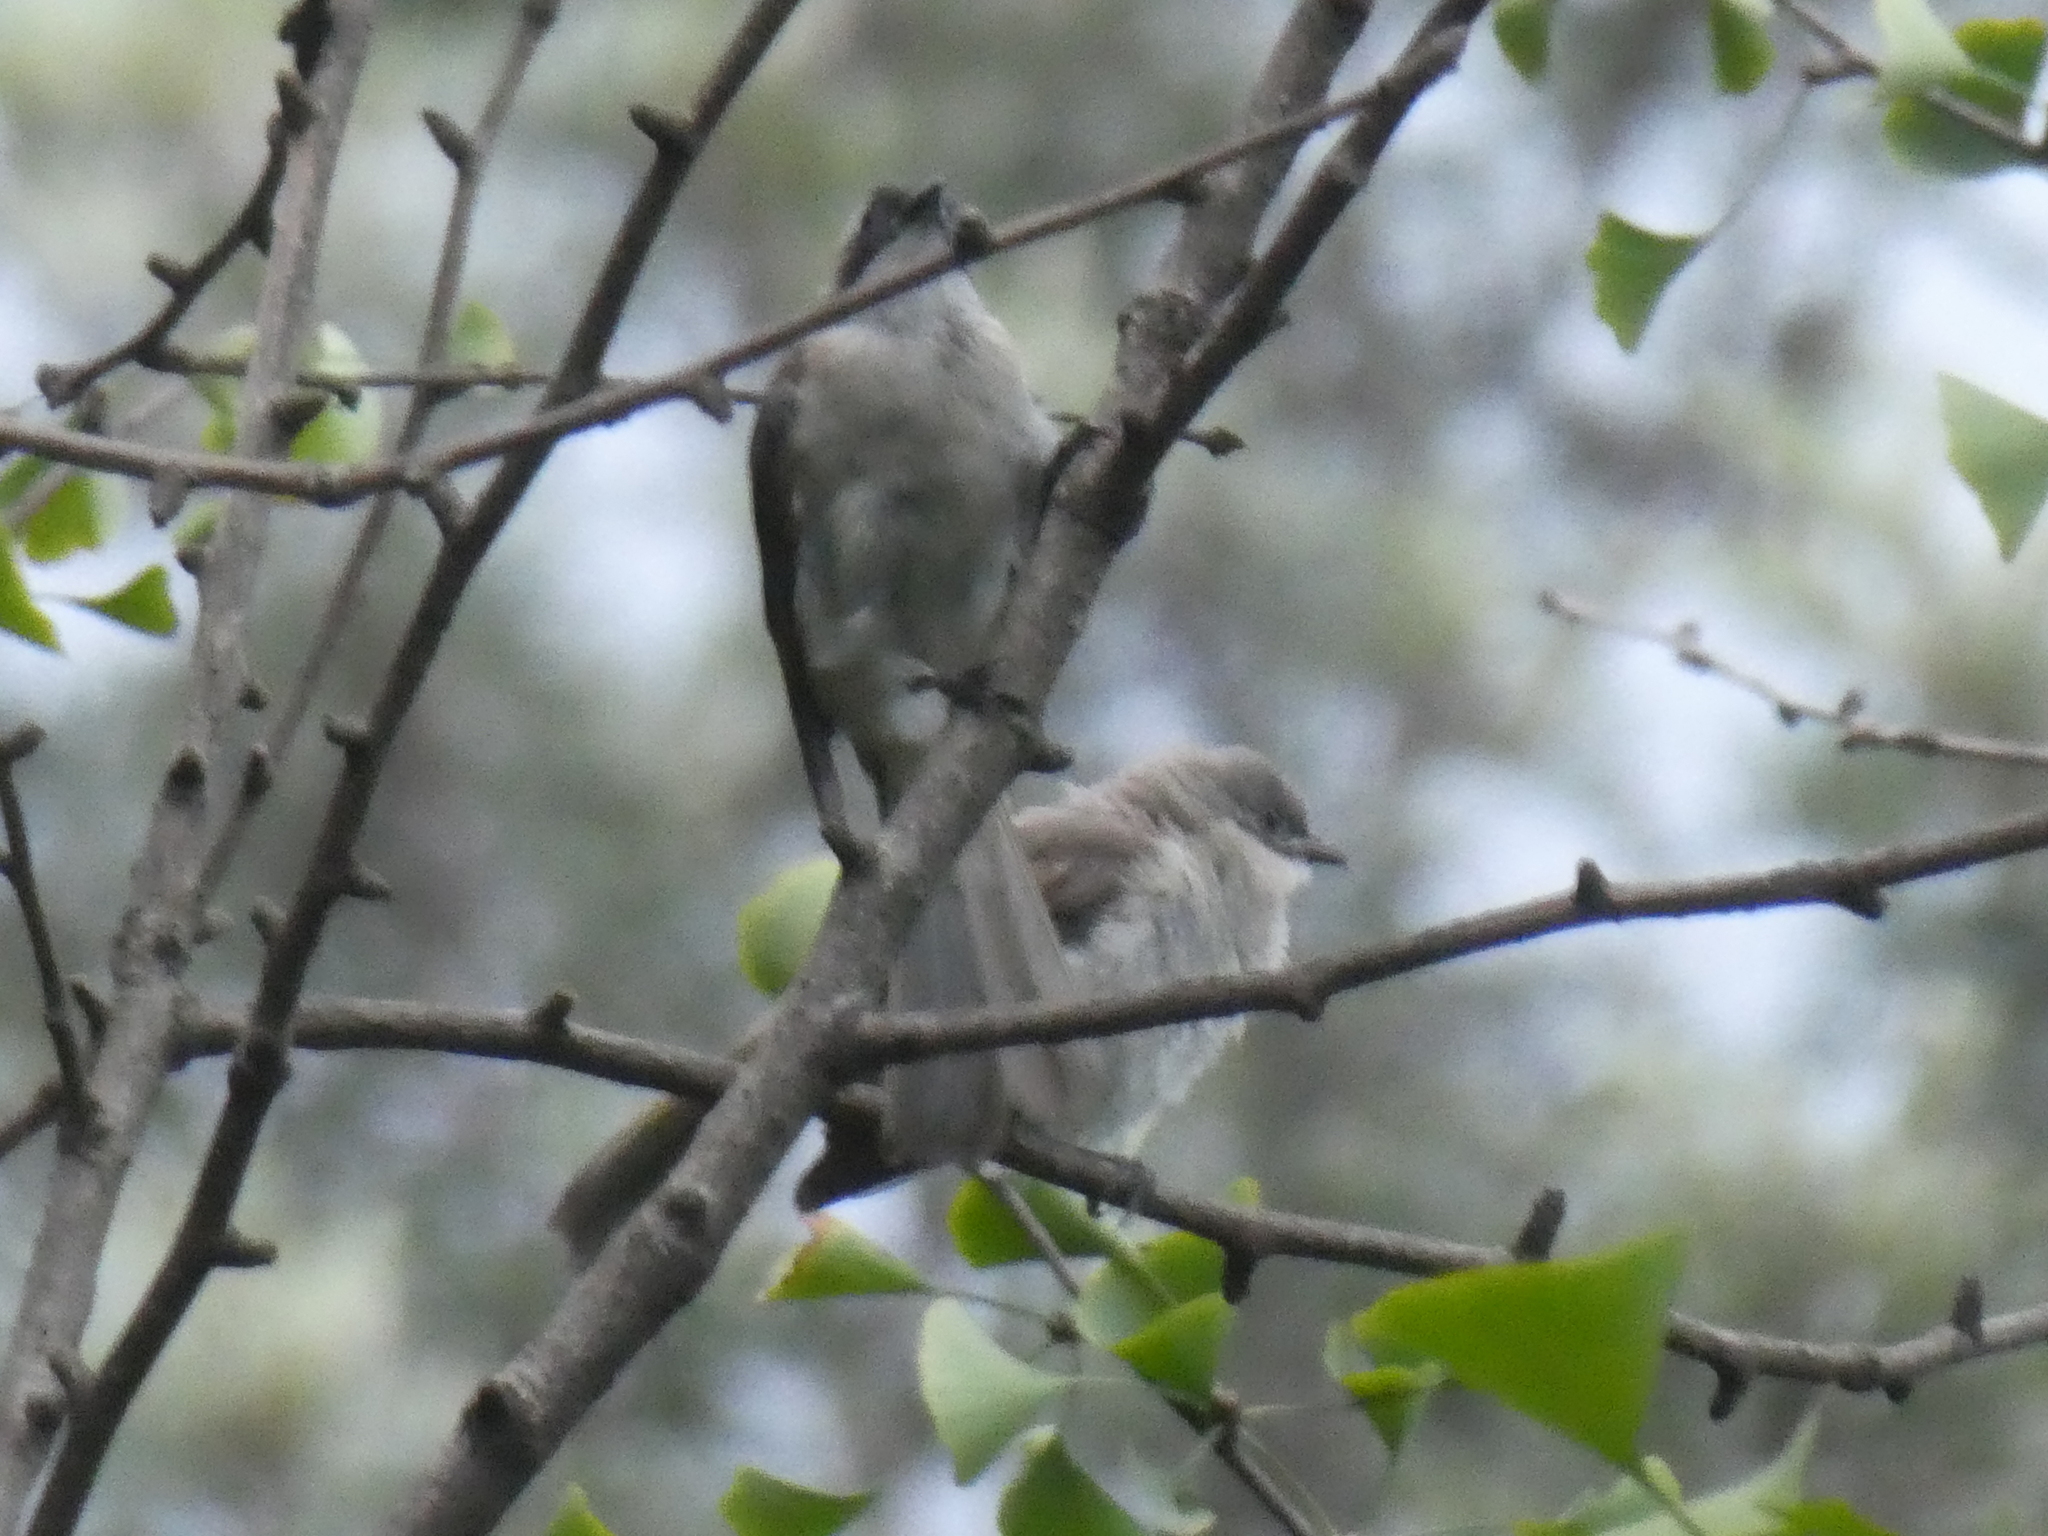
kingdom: Animalia
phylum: Chordata
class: Aves
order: Passeriformes
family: Pycnonotidae
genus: Pycnonotus
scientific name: Pycnonotus sinensis
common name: Light-vented bulbul
